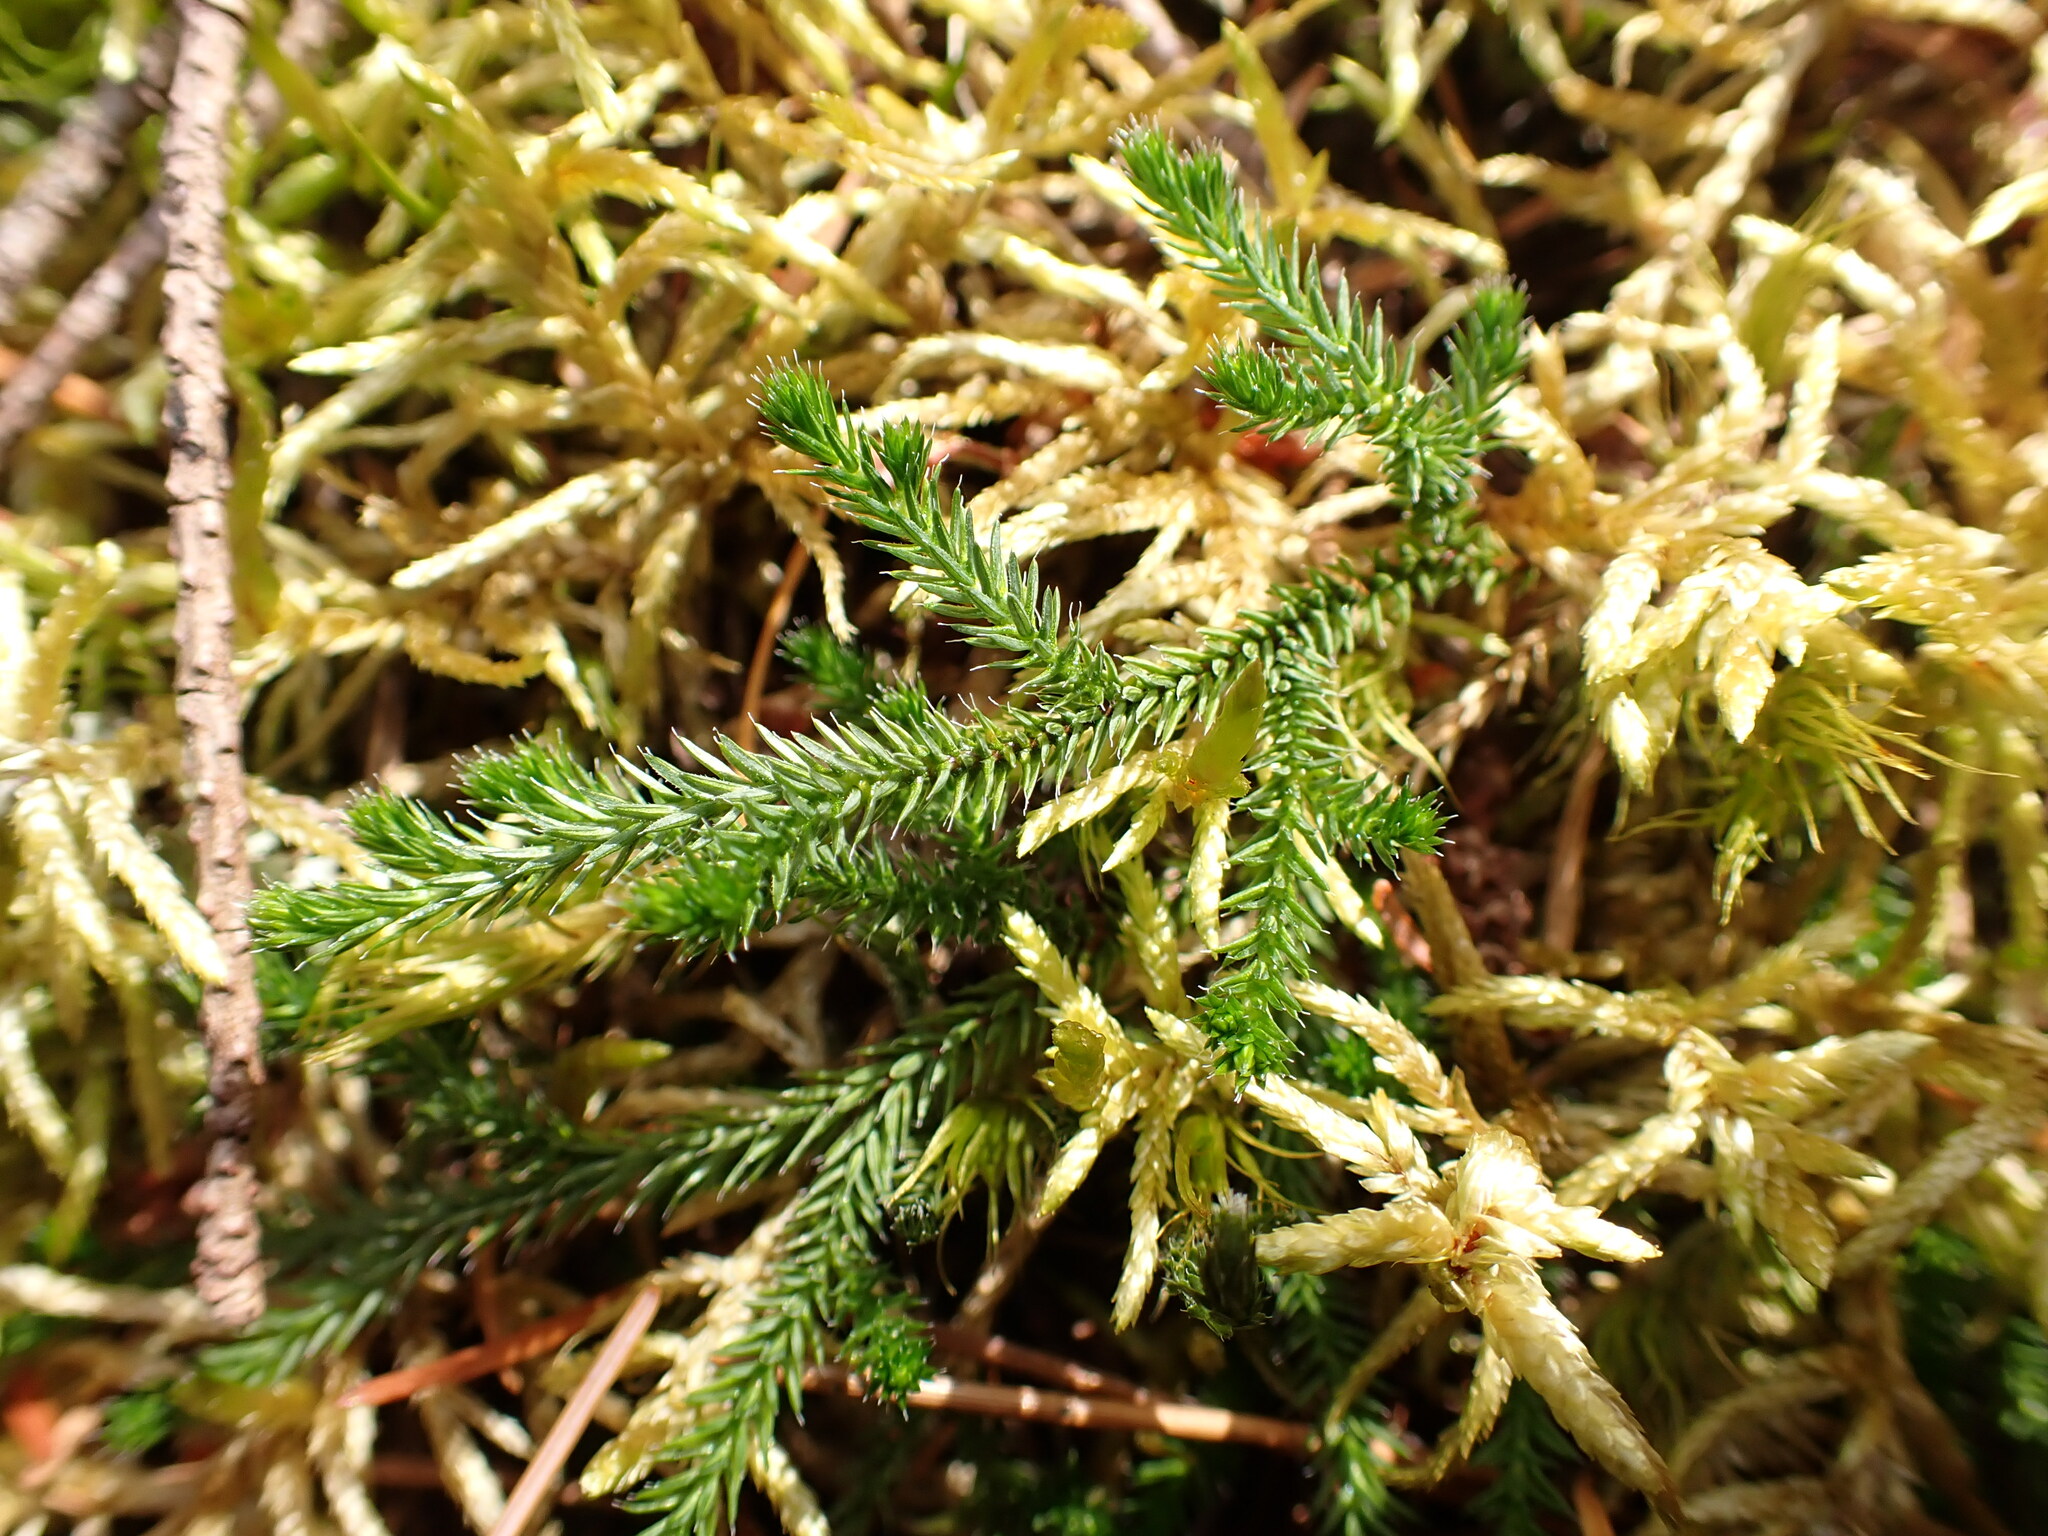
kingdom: Plantae
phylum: Tracheophyta
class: Lycopodiopsida
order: Selaginellales
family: Selaginellaceae
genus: Selaginella
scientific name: Selaginella wallacei
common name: Wallace's selaginella
